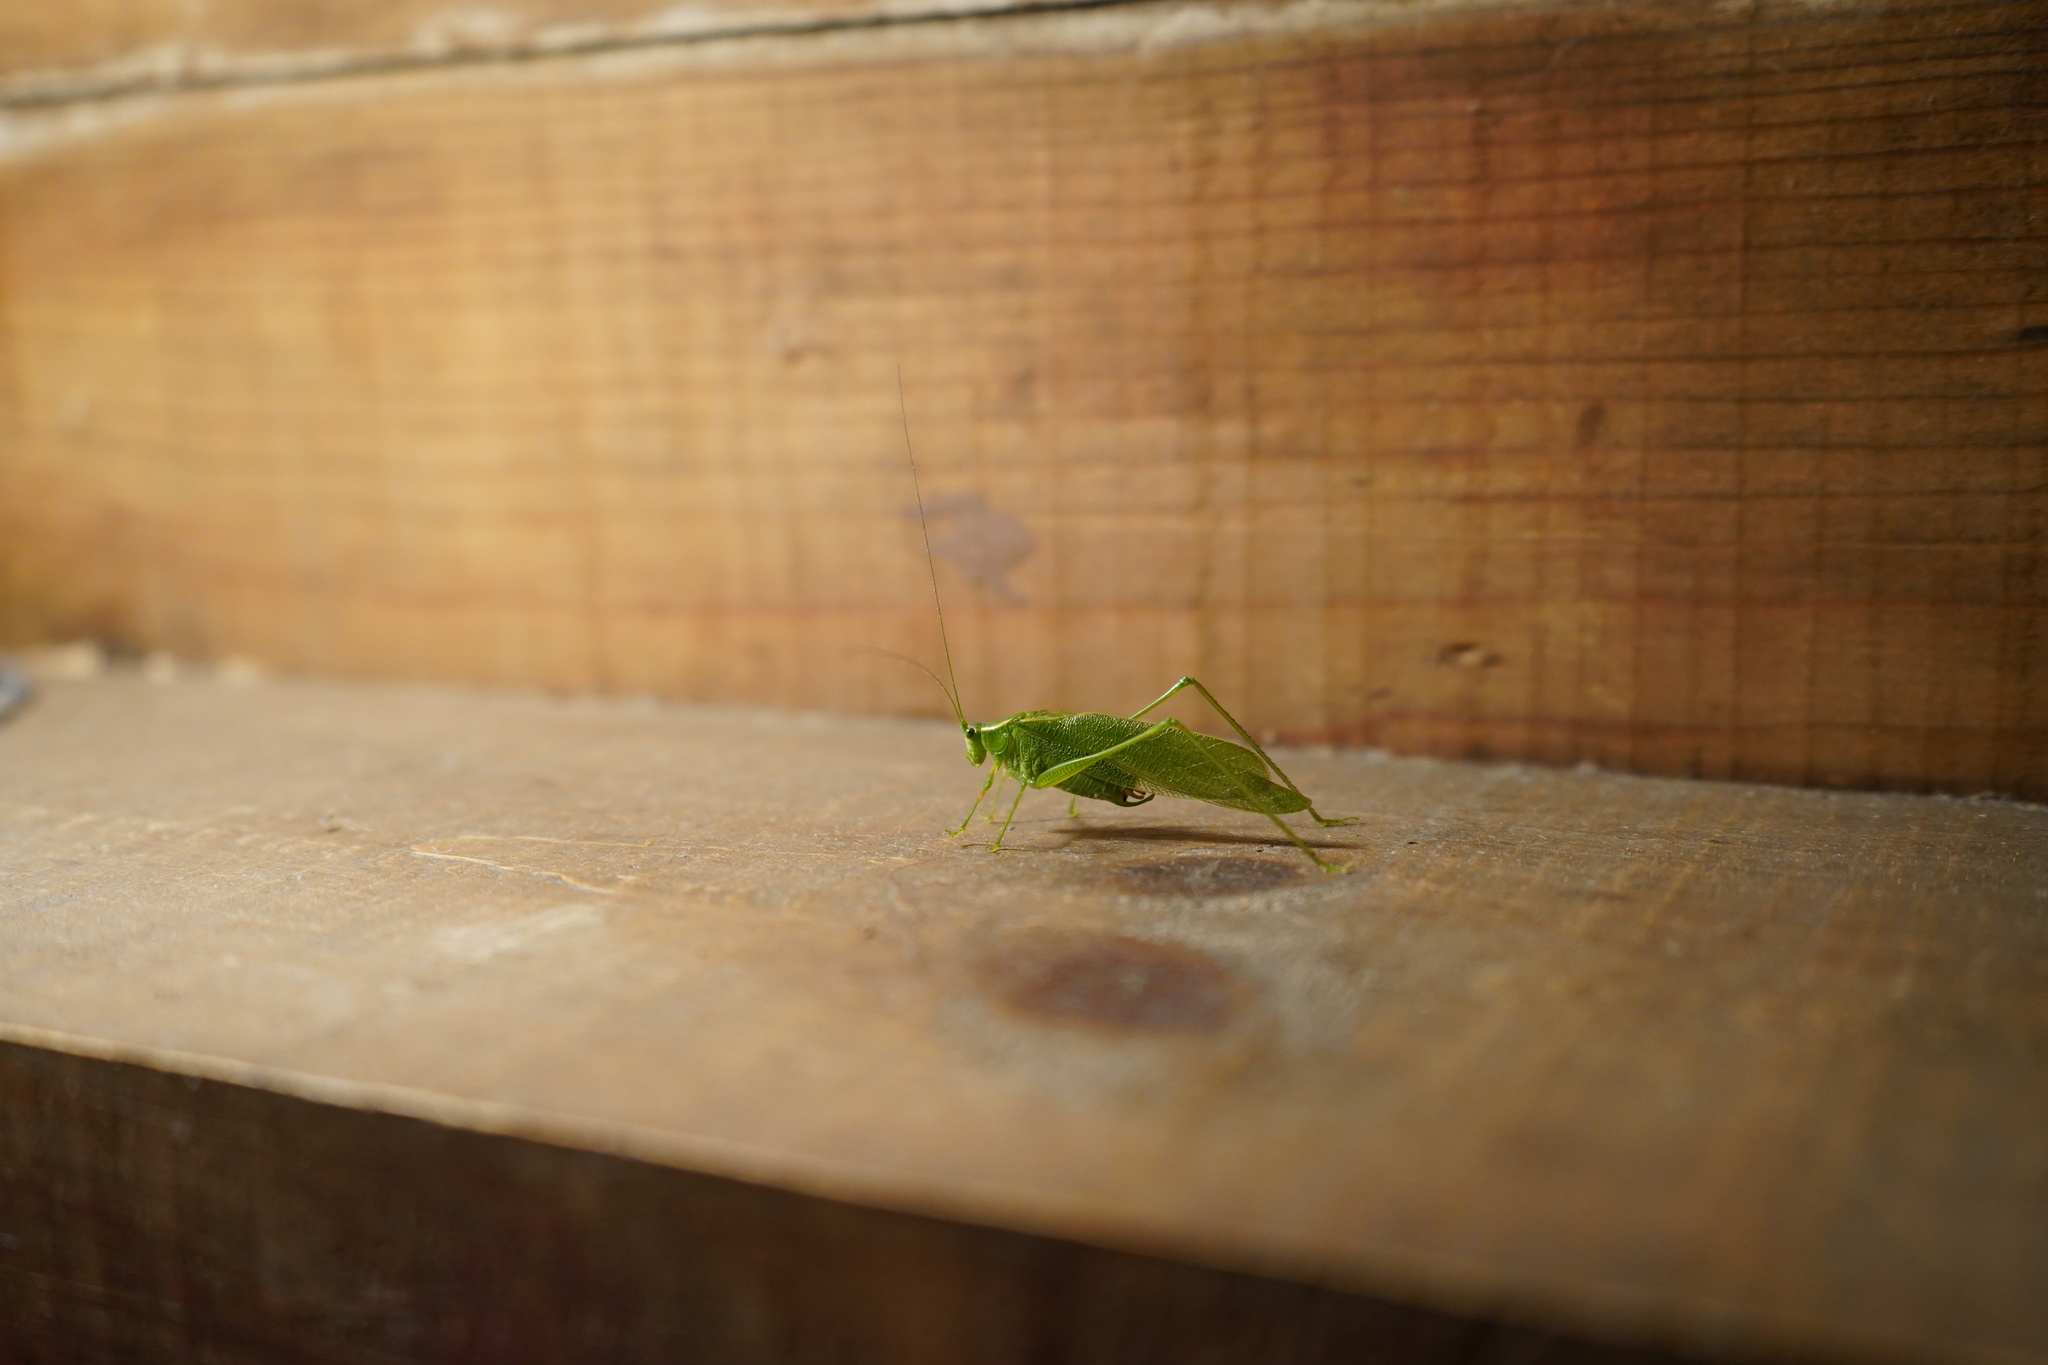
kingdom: Animalia
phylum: Arthropoda
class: Insecta
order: Orthoptera
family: Tettigoniidae
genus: Scudderia
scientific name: Scudderia septentrionalis
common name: Northern bush-katydid
